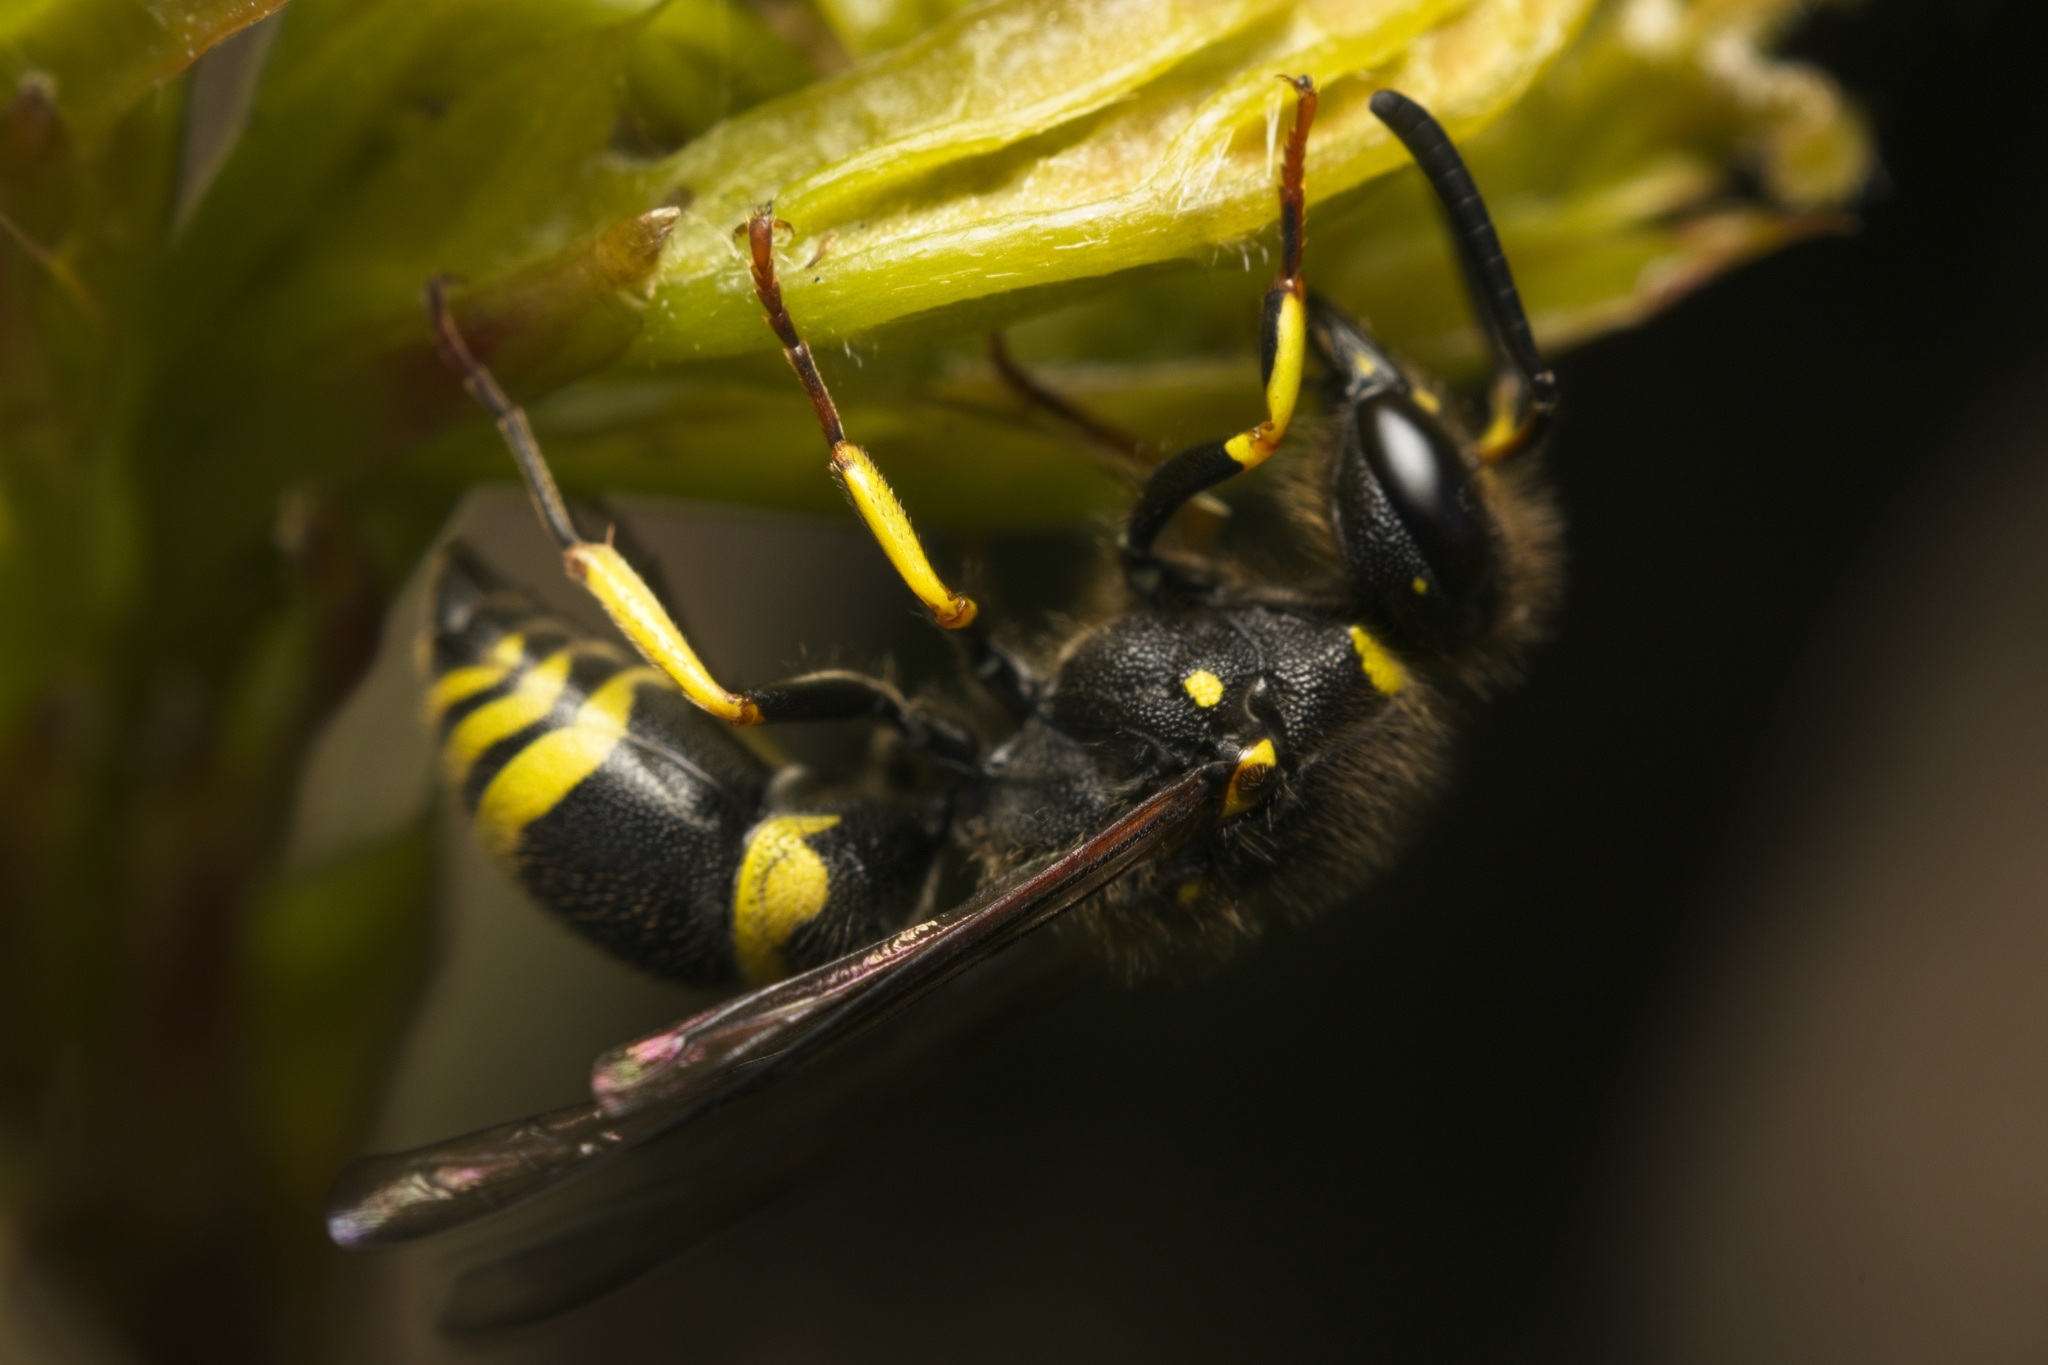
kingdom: Animalia
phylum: Arthropoda
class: Insecta
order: Hymenoptera
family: Vespidae
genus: Ancistrocerus
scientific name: Ancistrocerus gazella
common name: European tube wasp
